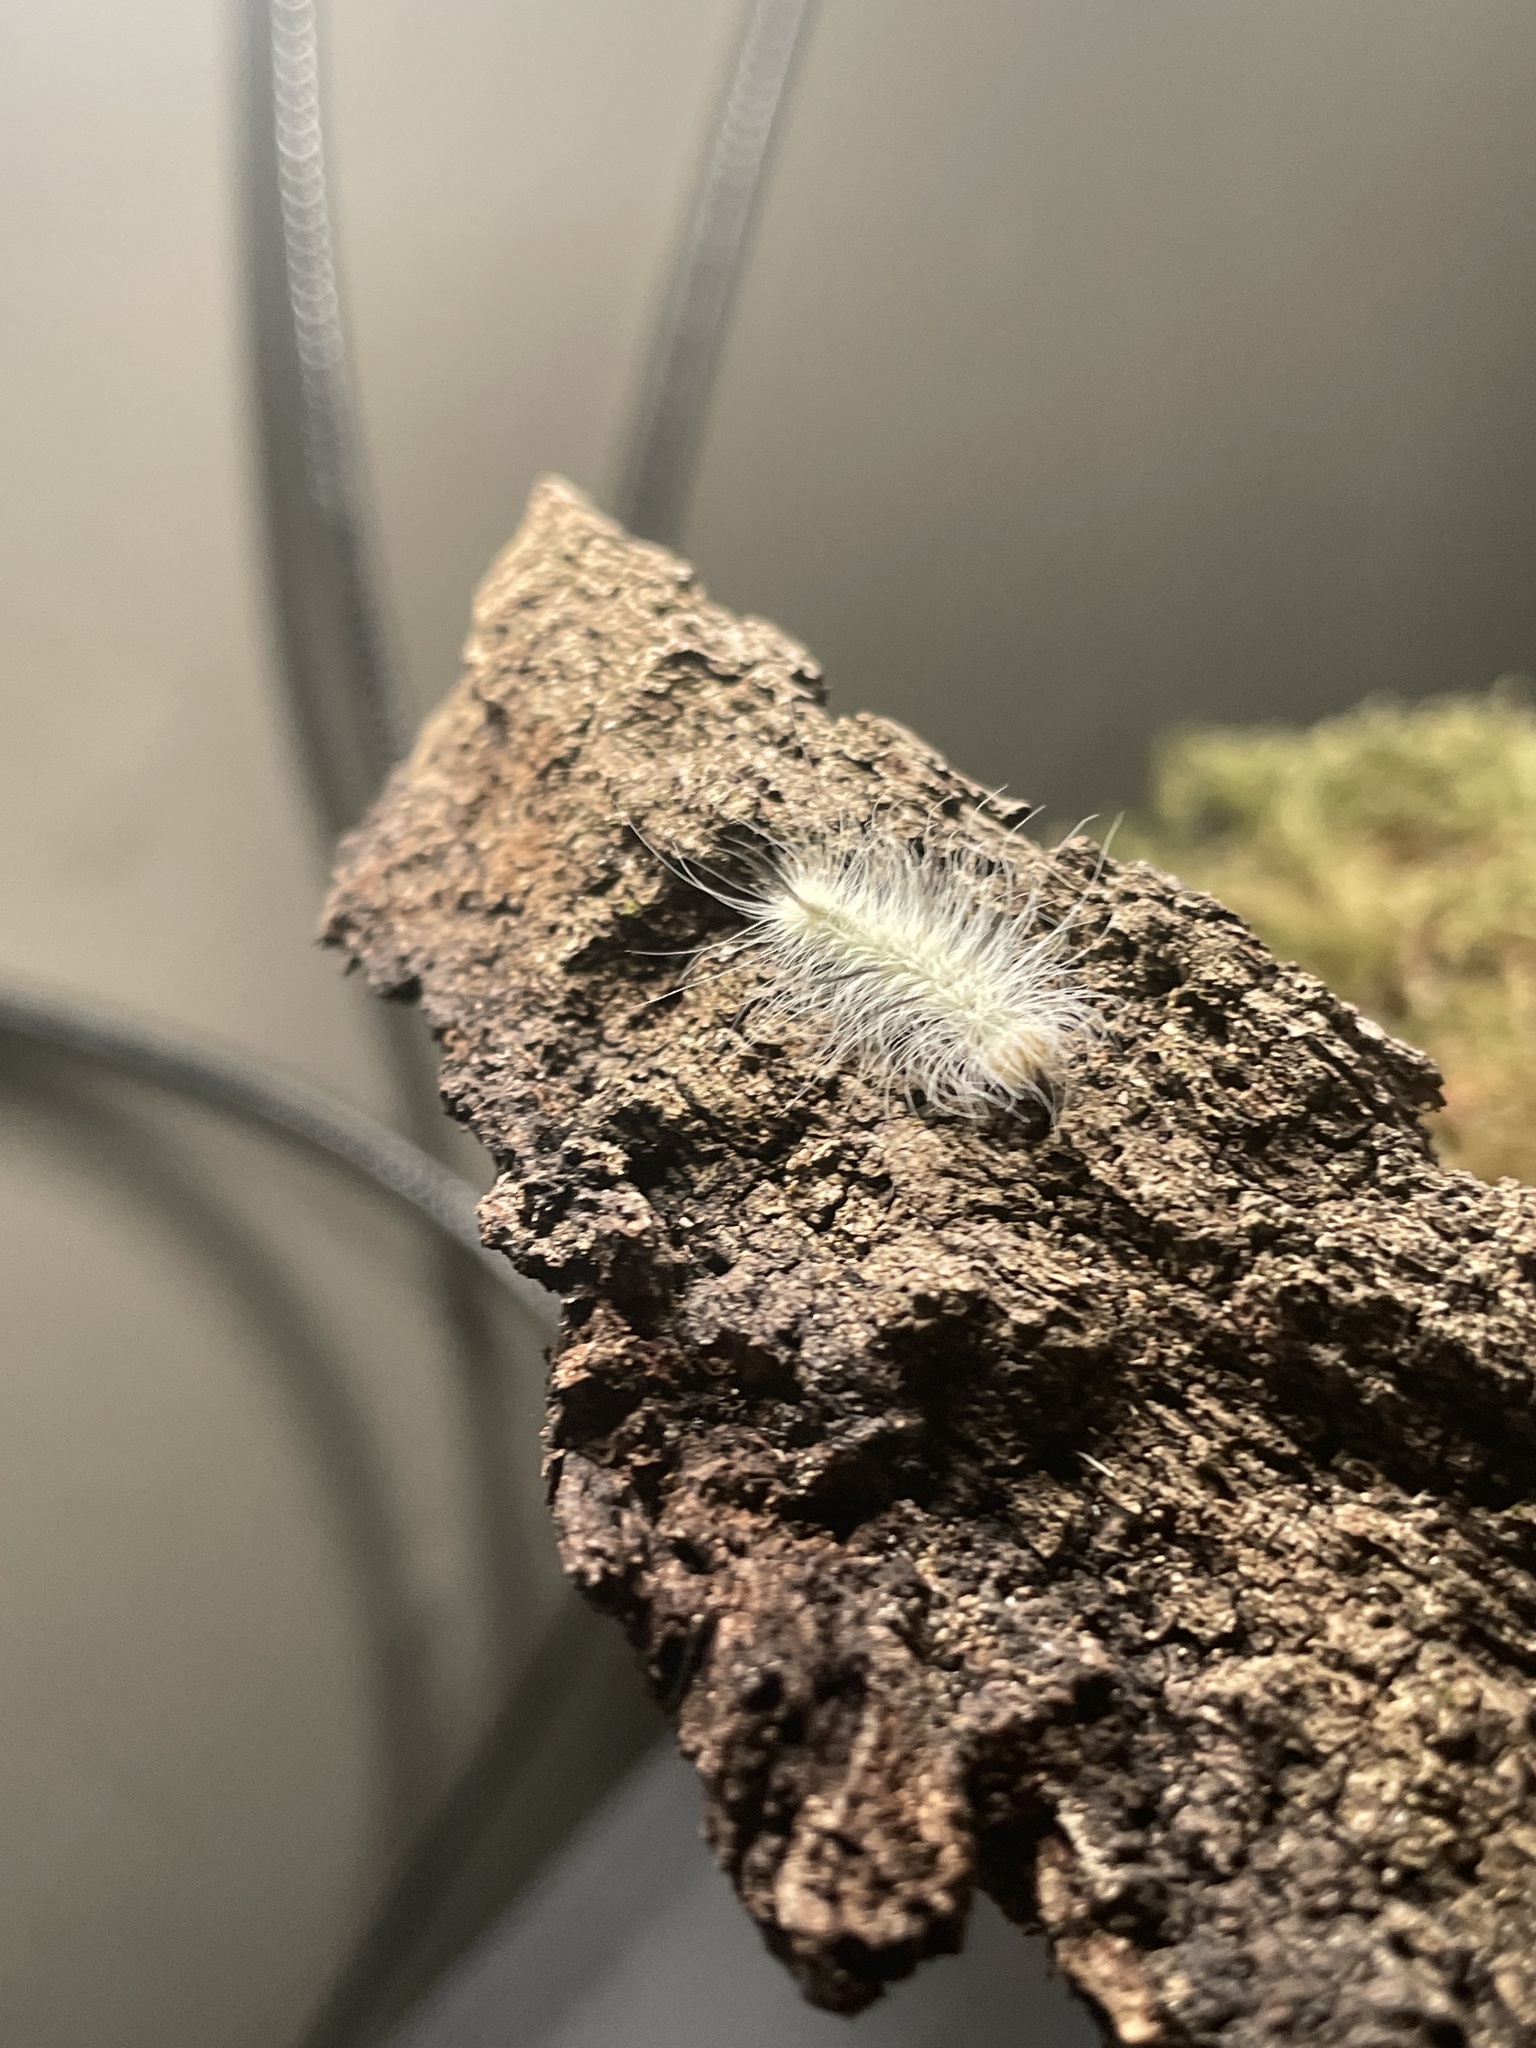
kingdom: Animalia
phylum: Arthropoda
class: Insecta
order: Lepidoptera
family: Noctuidae
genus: Acronicta
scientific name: Acronicta americana
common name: American dagger
